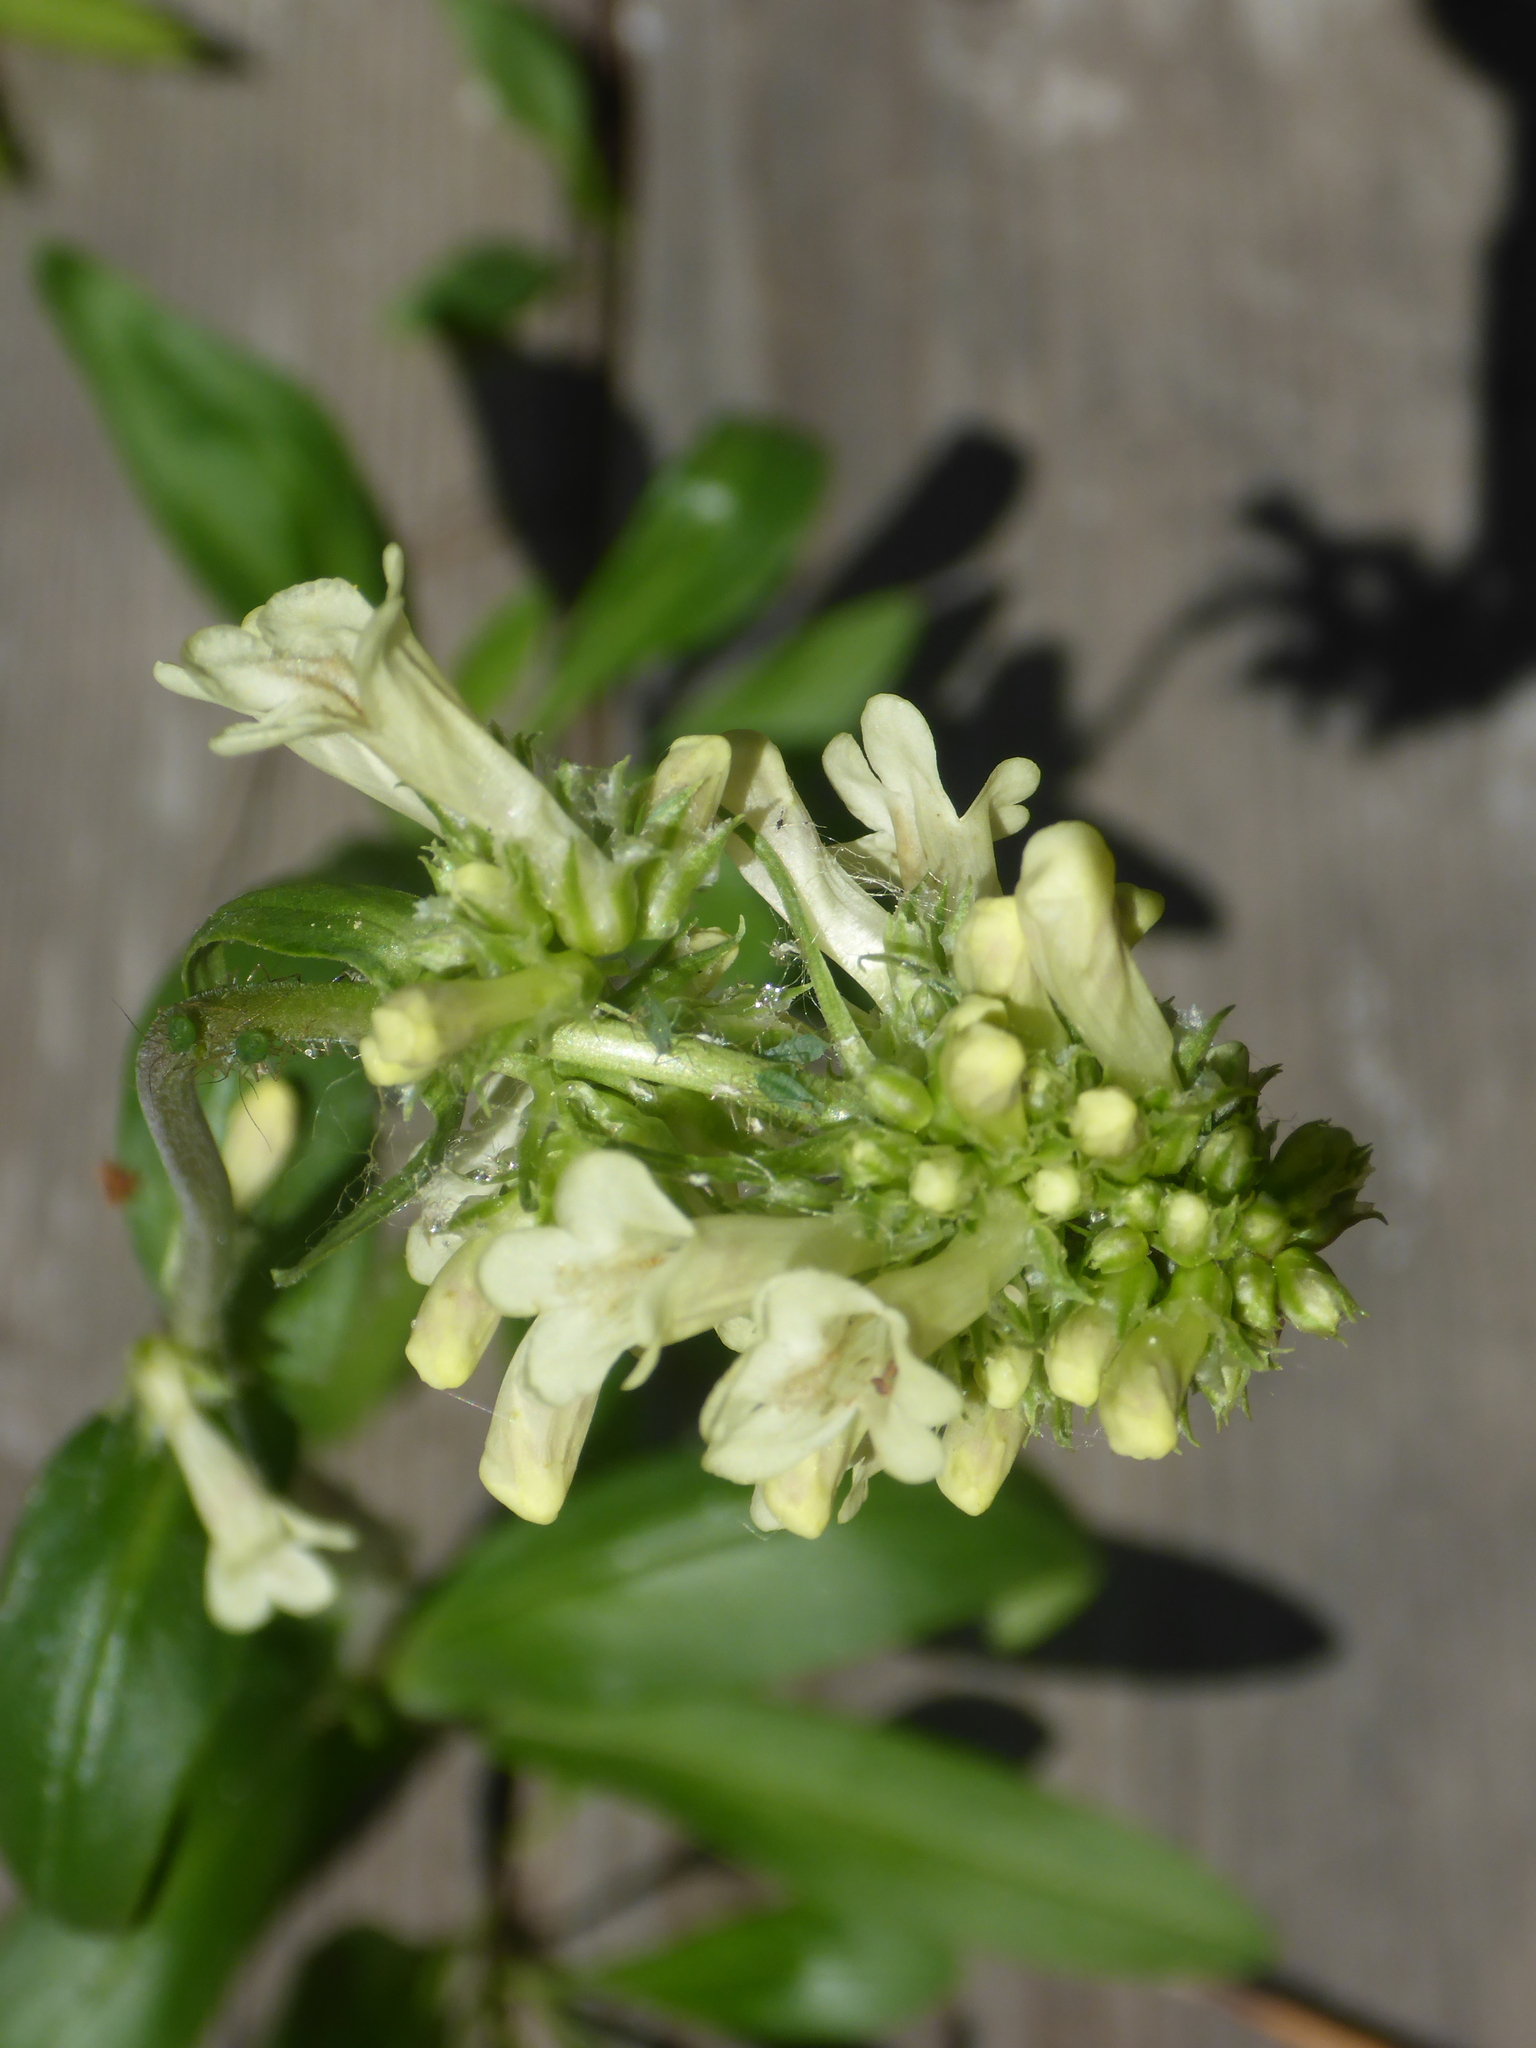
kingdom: Plantae
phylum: Tracheophyta
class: Magnoliopsida
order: Lamiales
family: Plantaginaceae
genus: Penstemon
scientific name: Penstemon confertus
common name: Lesser yellow beardtongue
